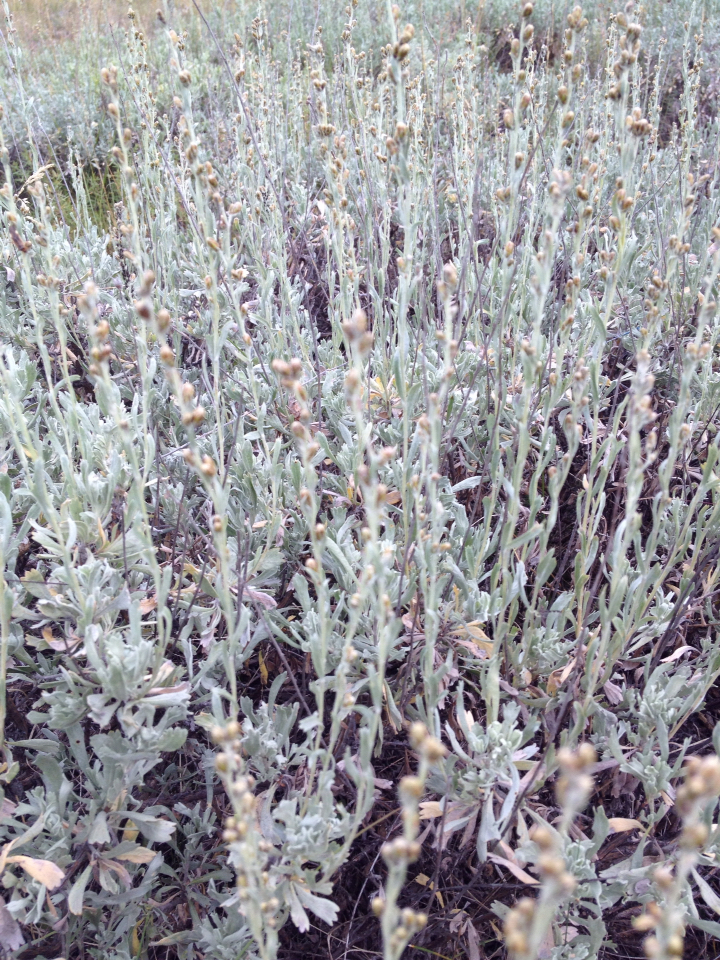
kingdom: Plantae
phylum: Tracheophyta
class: Magnoliopsida
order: Asterales
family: Asteraceae
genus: Artemisia
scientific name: Artemisia tridentata
